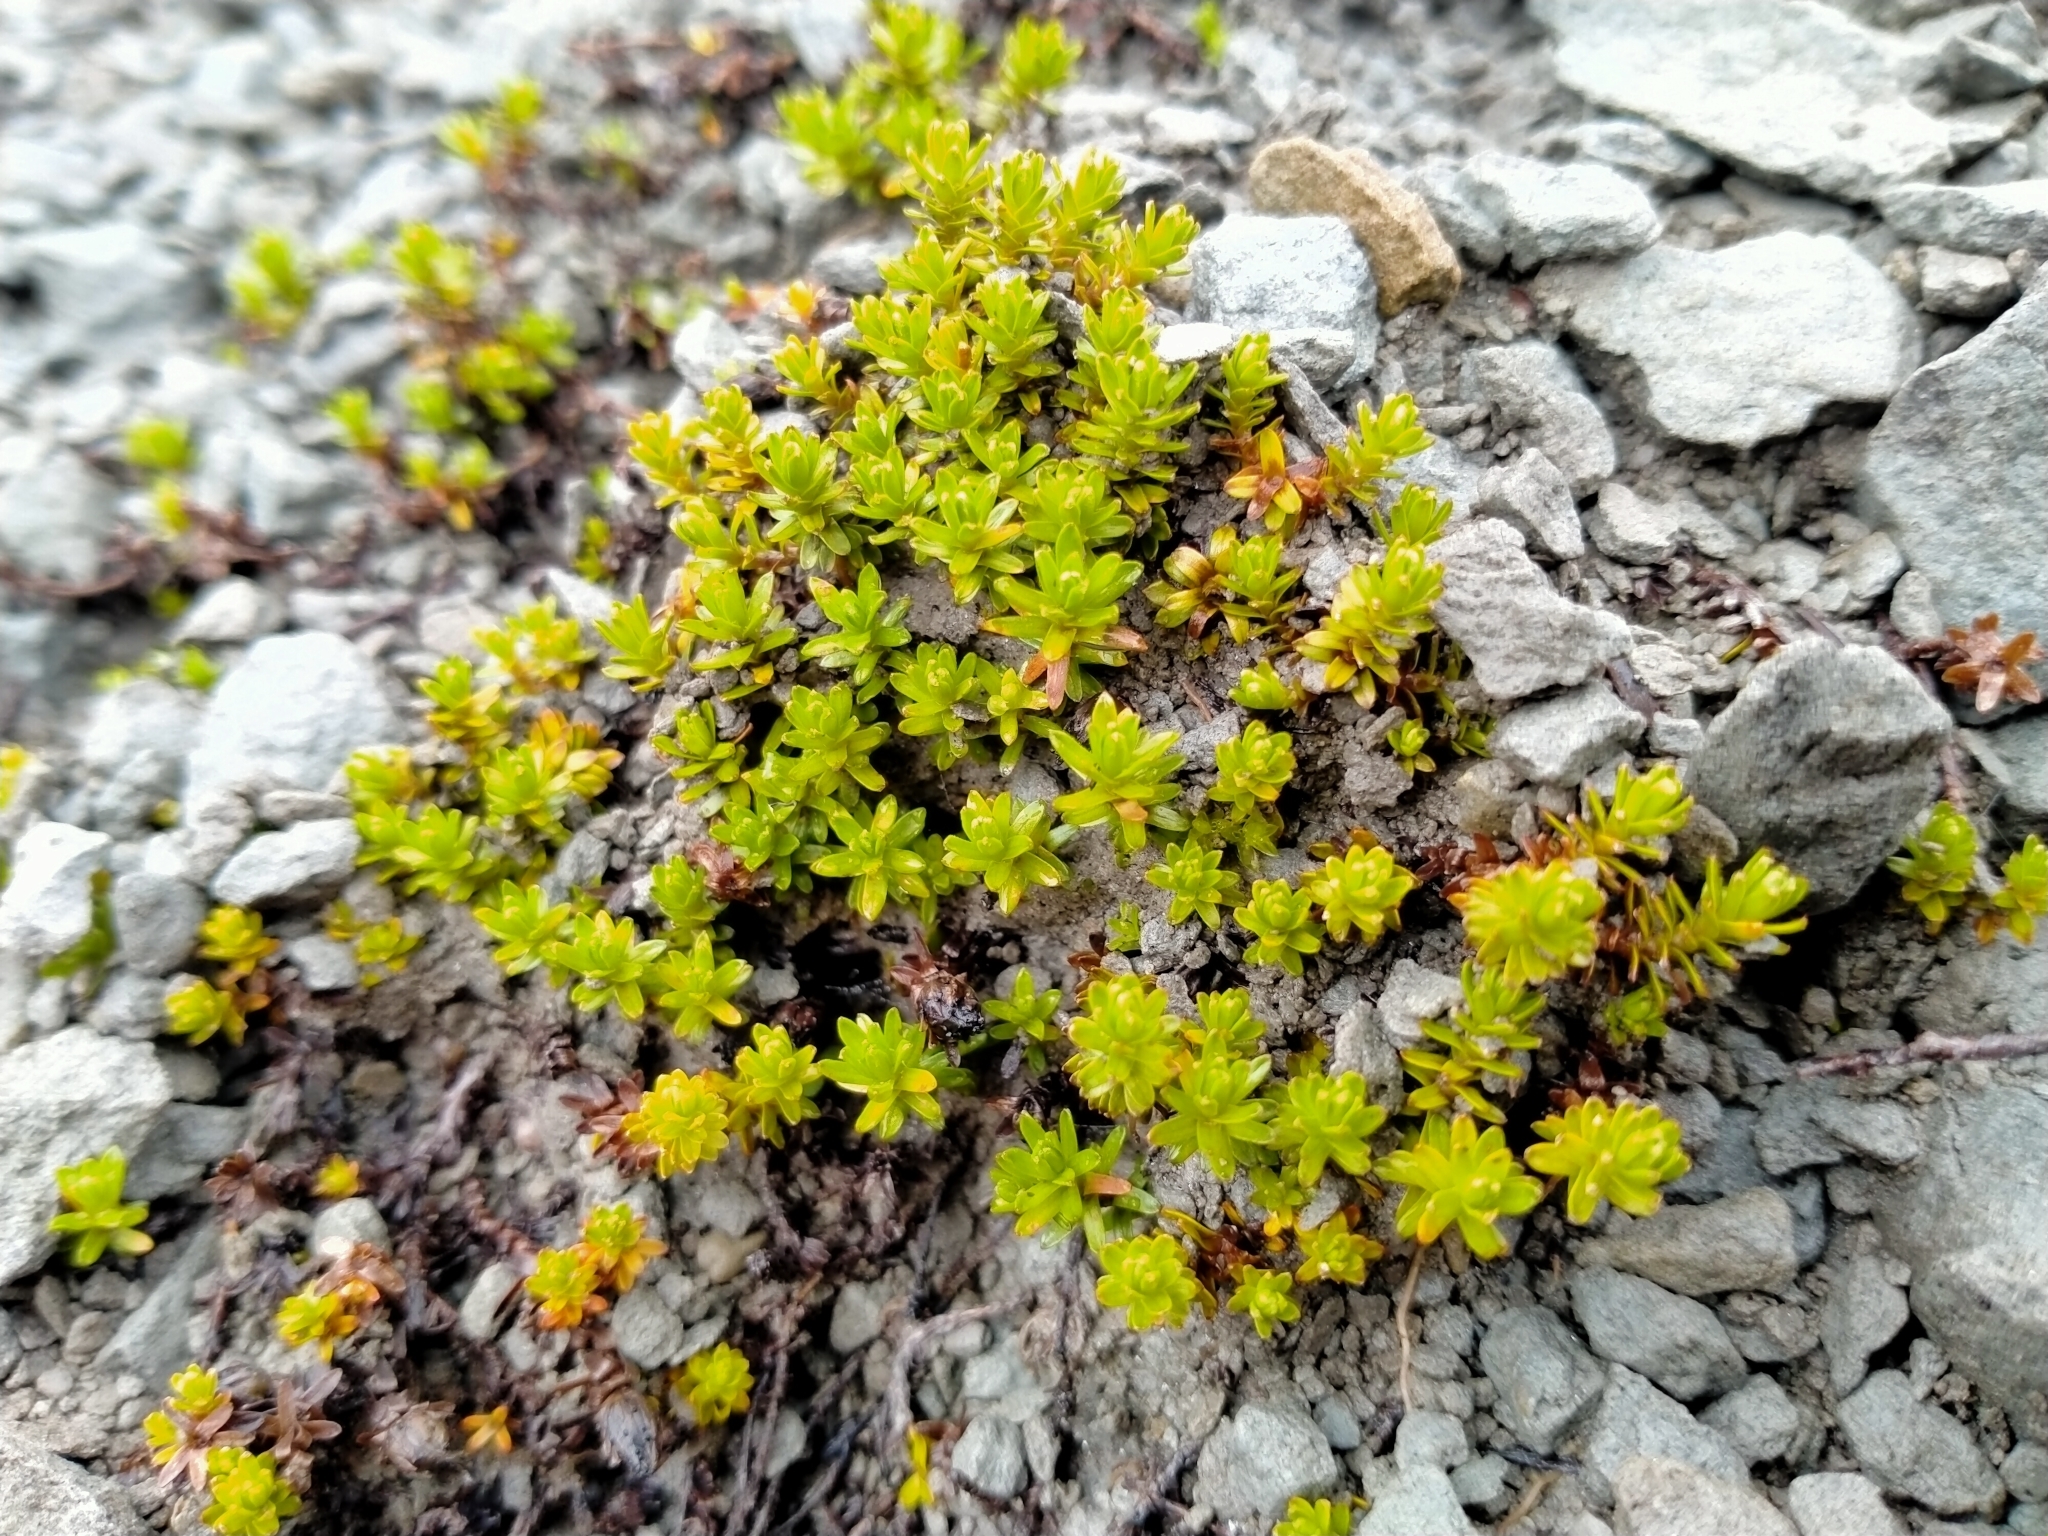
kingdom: Plantae
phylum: Tracheophyta
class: Magnoliopsida
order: Asterales
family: Asteraceae
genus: Raoulia
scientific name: Raoulia glabra
